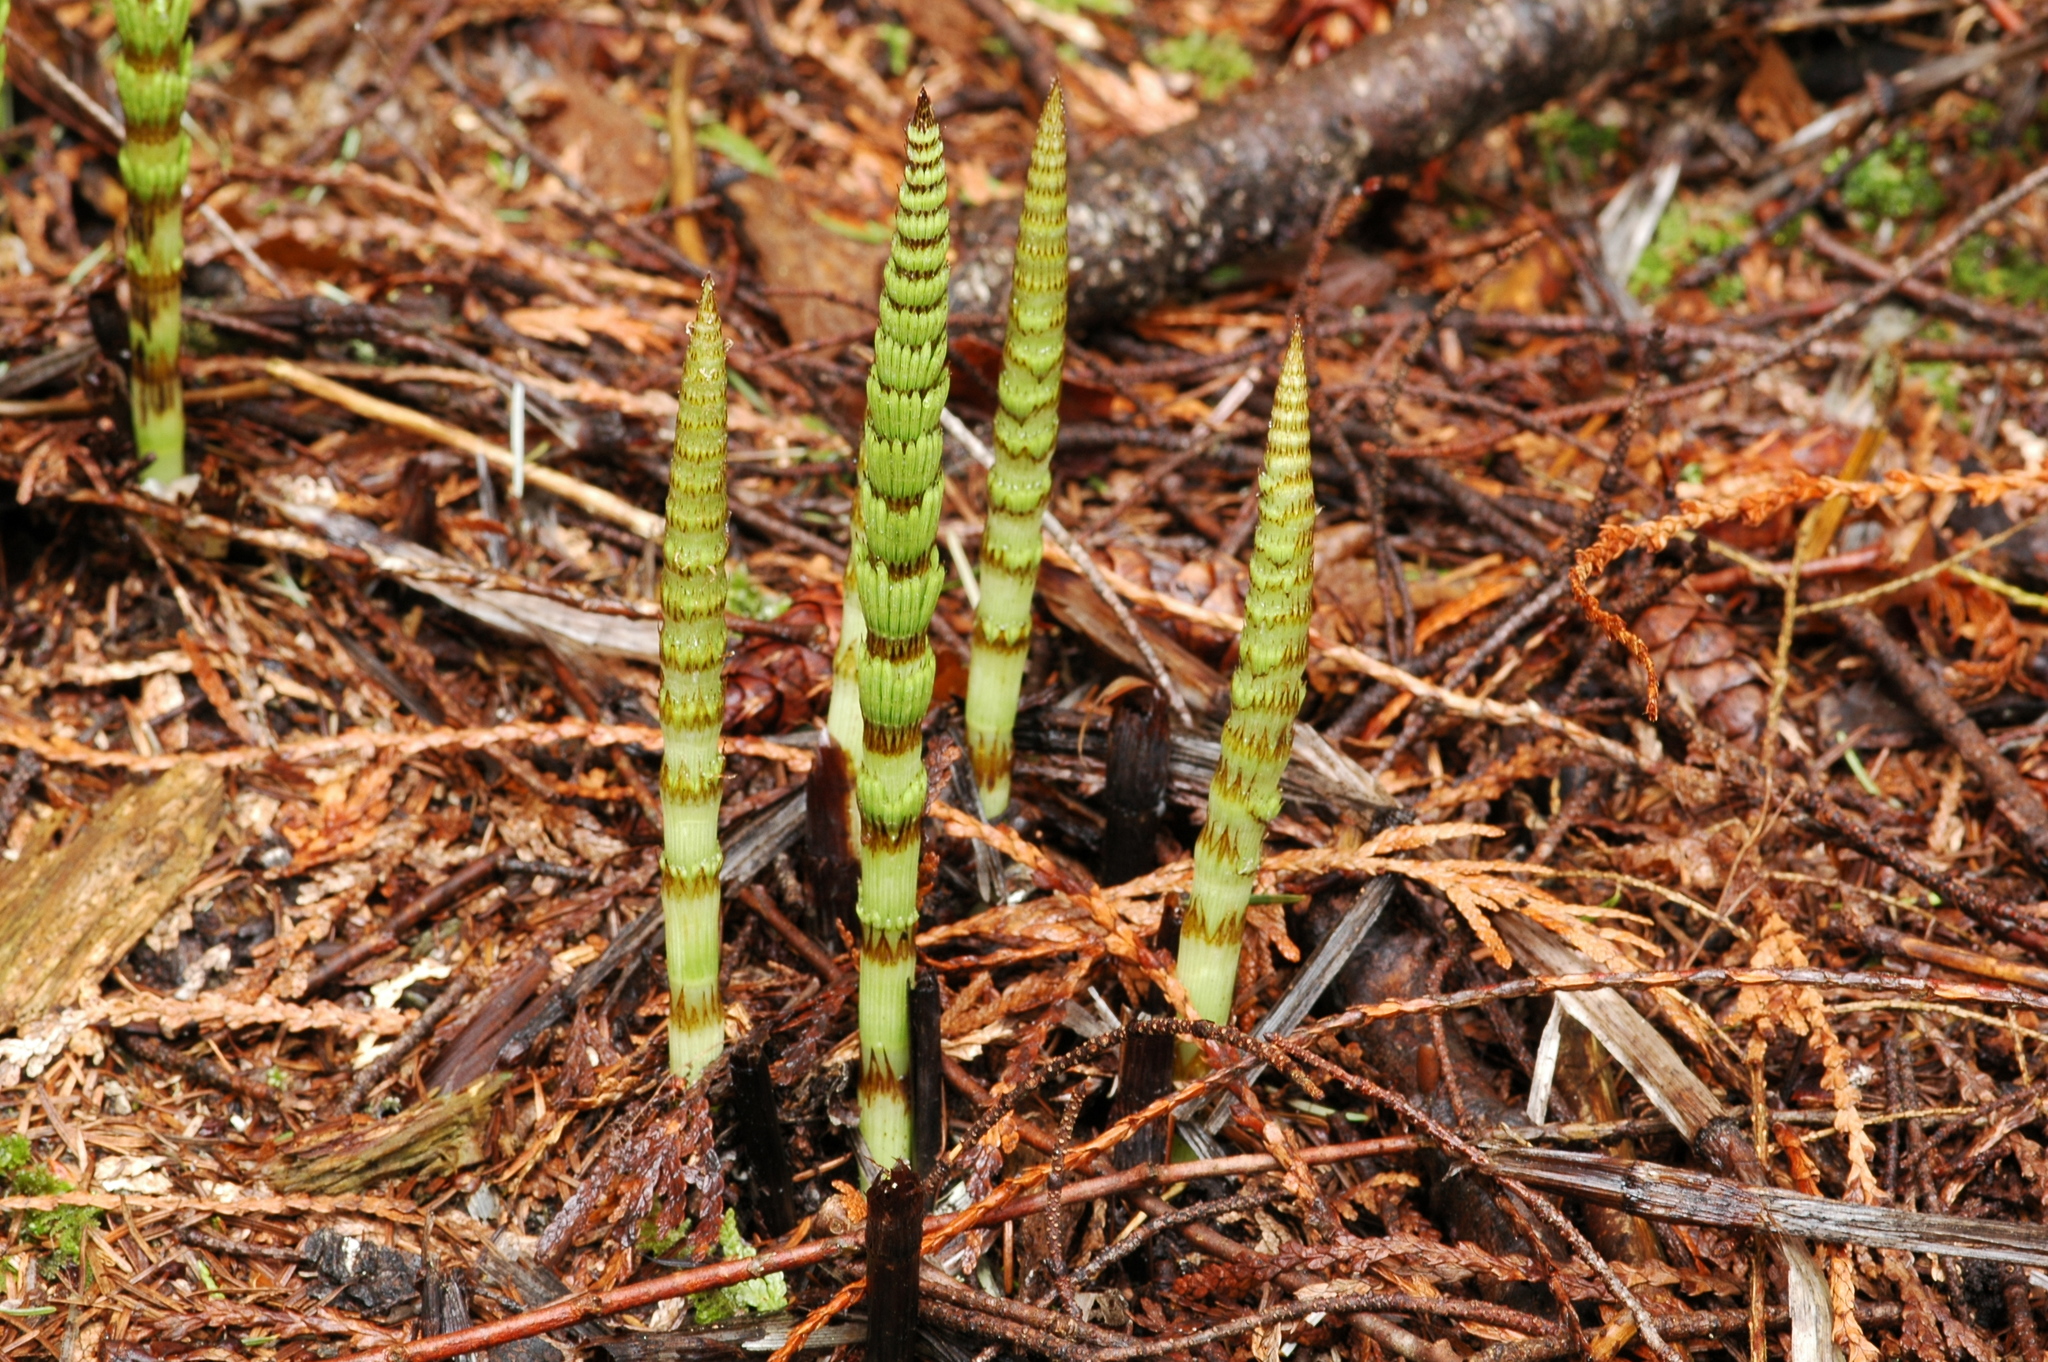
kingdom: Plantae
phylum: Tracheophyta
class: Polypodiopsida
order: Equisetales
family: Equisetaceae
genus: Equisetum
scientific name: Equisetum braunii
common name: Braun's horsetail
